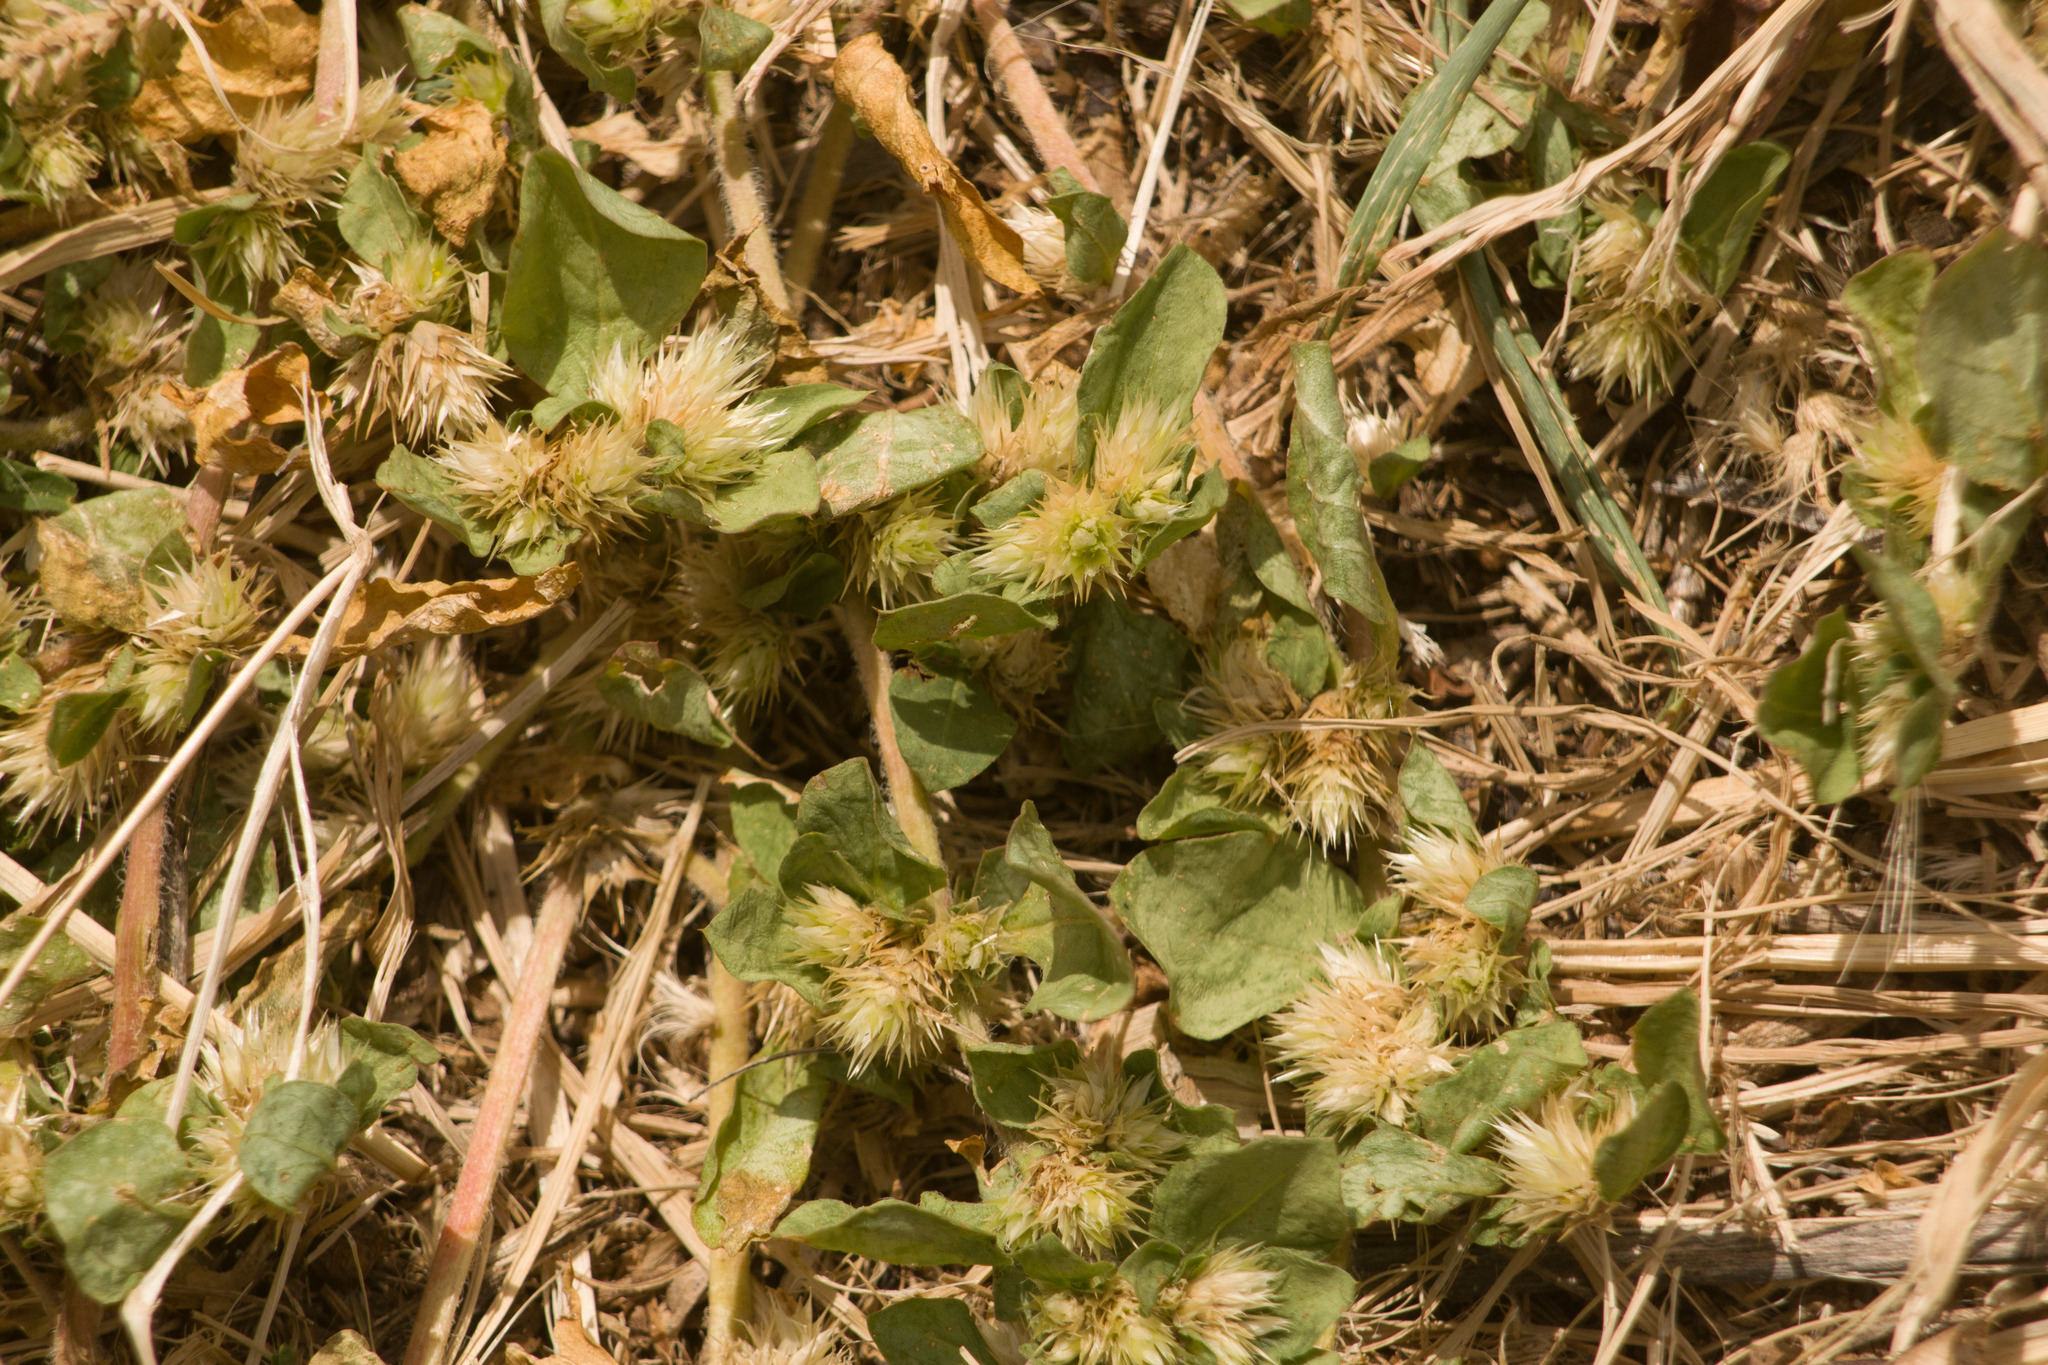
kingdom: Plantae
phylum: Tracheophyta
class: Magnoliopsida
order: Caryophyllales
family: Amaranthaceae
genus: Alternanthera
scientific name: Alternanthera pungens
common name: Khakiweed
